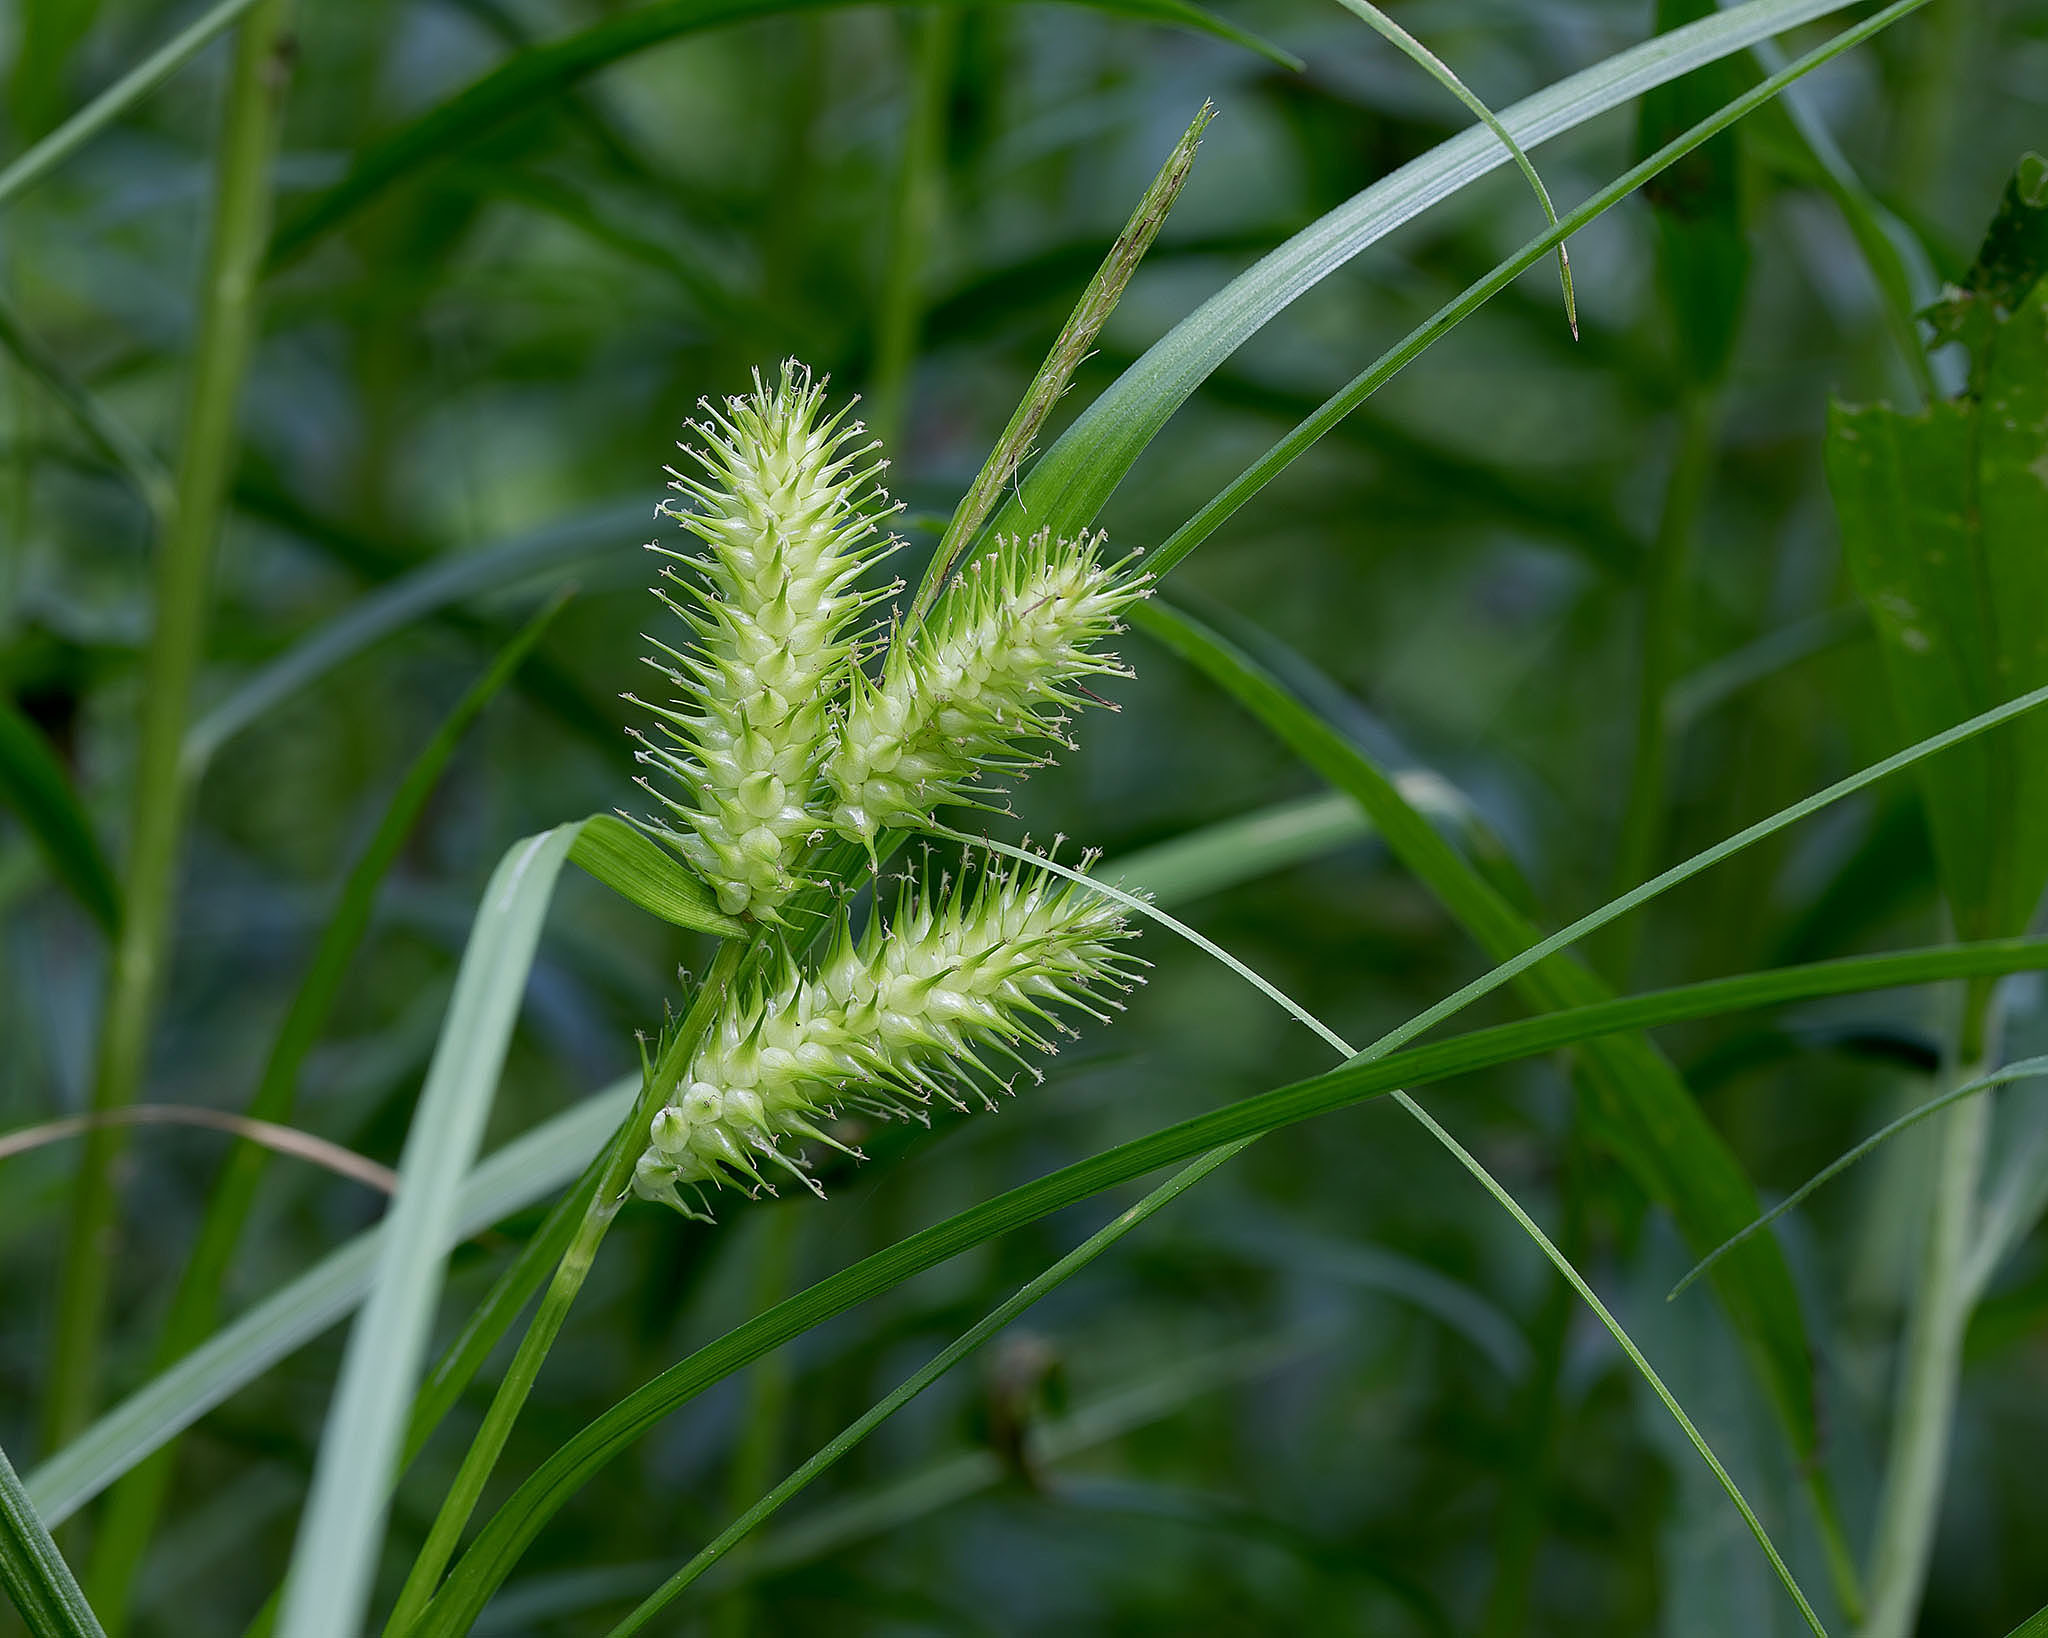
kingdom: Plantae
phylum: Tracheophyta
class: Liliopsida
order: Poales
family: Cyperaceae
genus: Carex
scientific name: Carex lurida
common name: Sallow sedge
